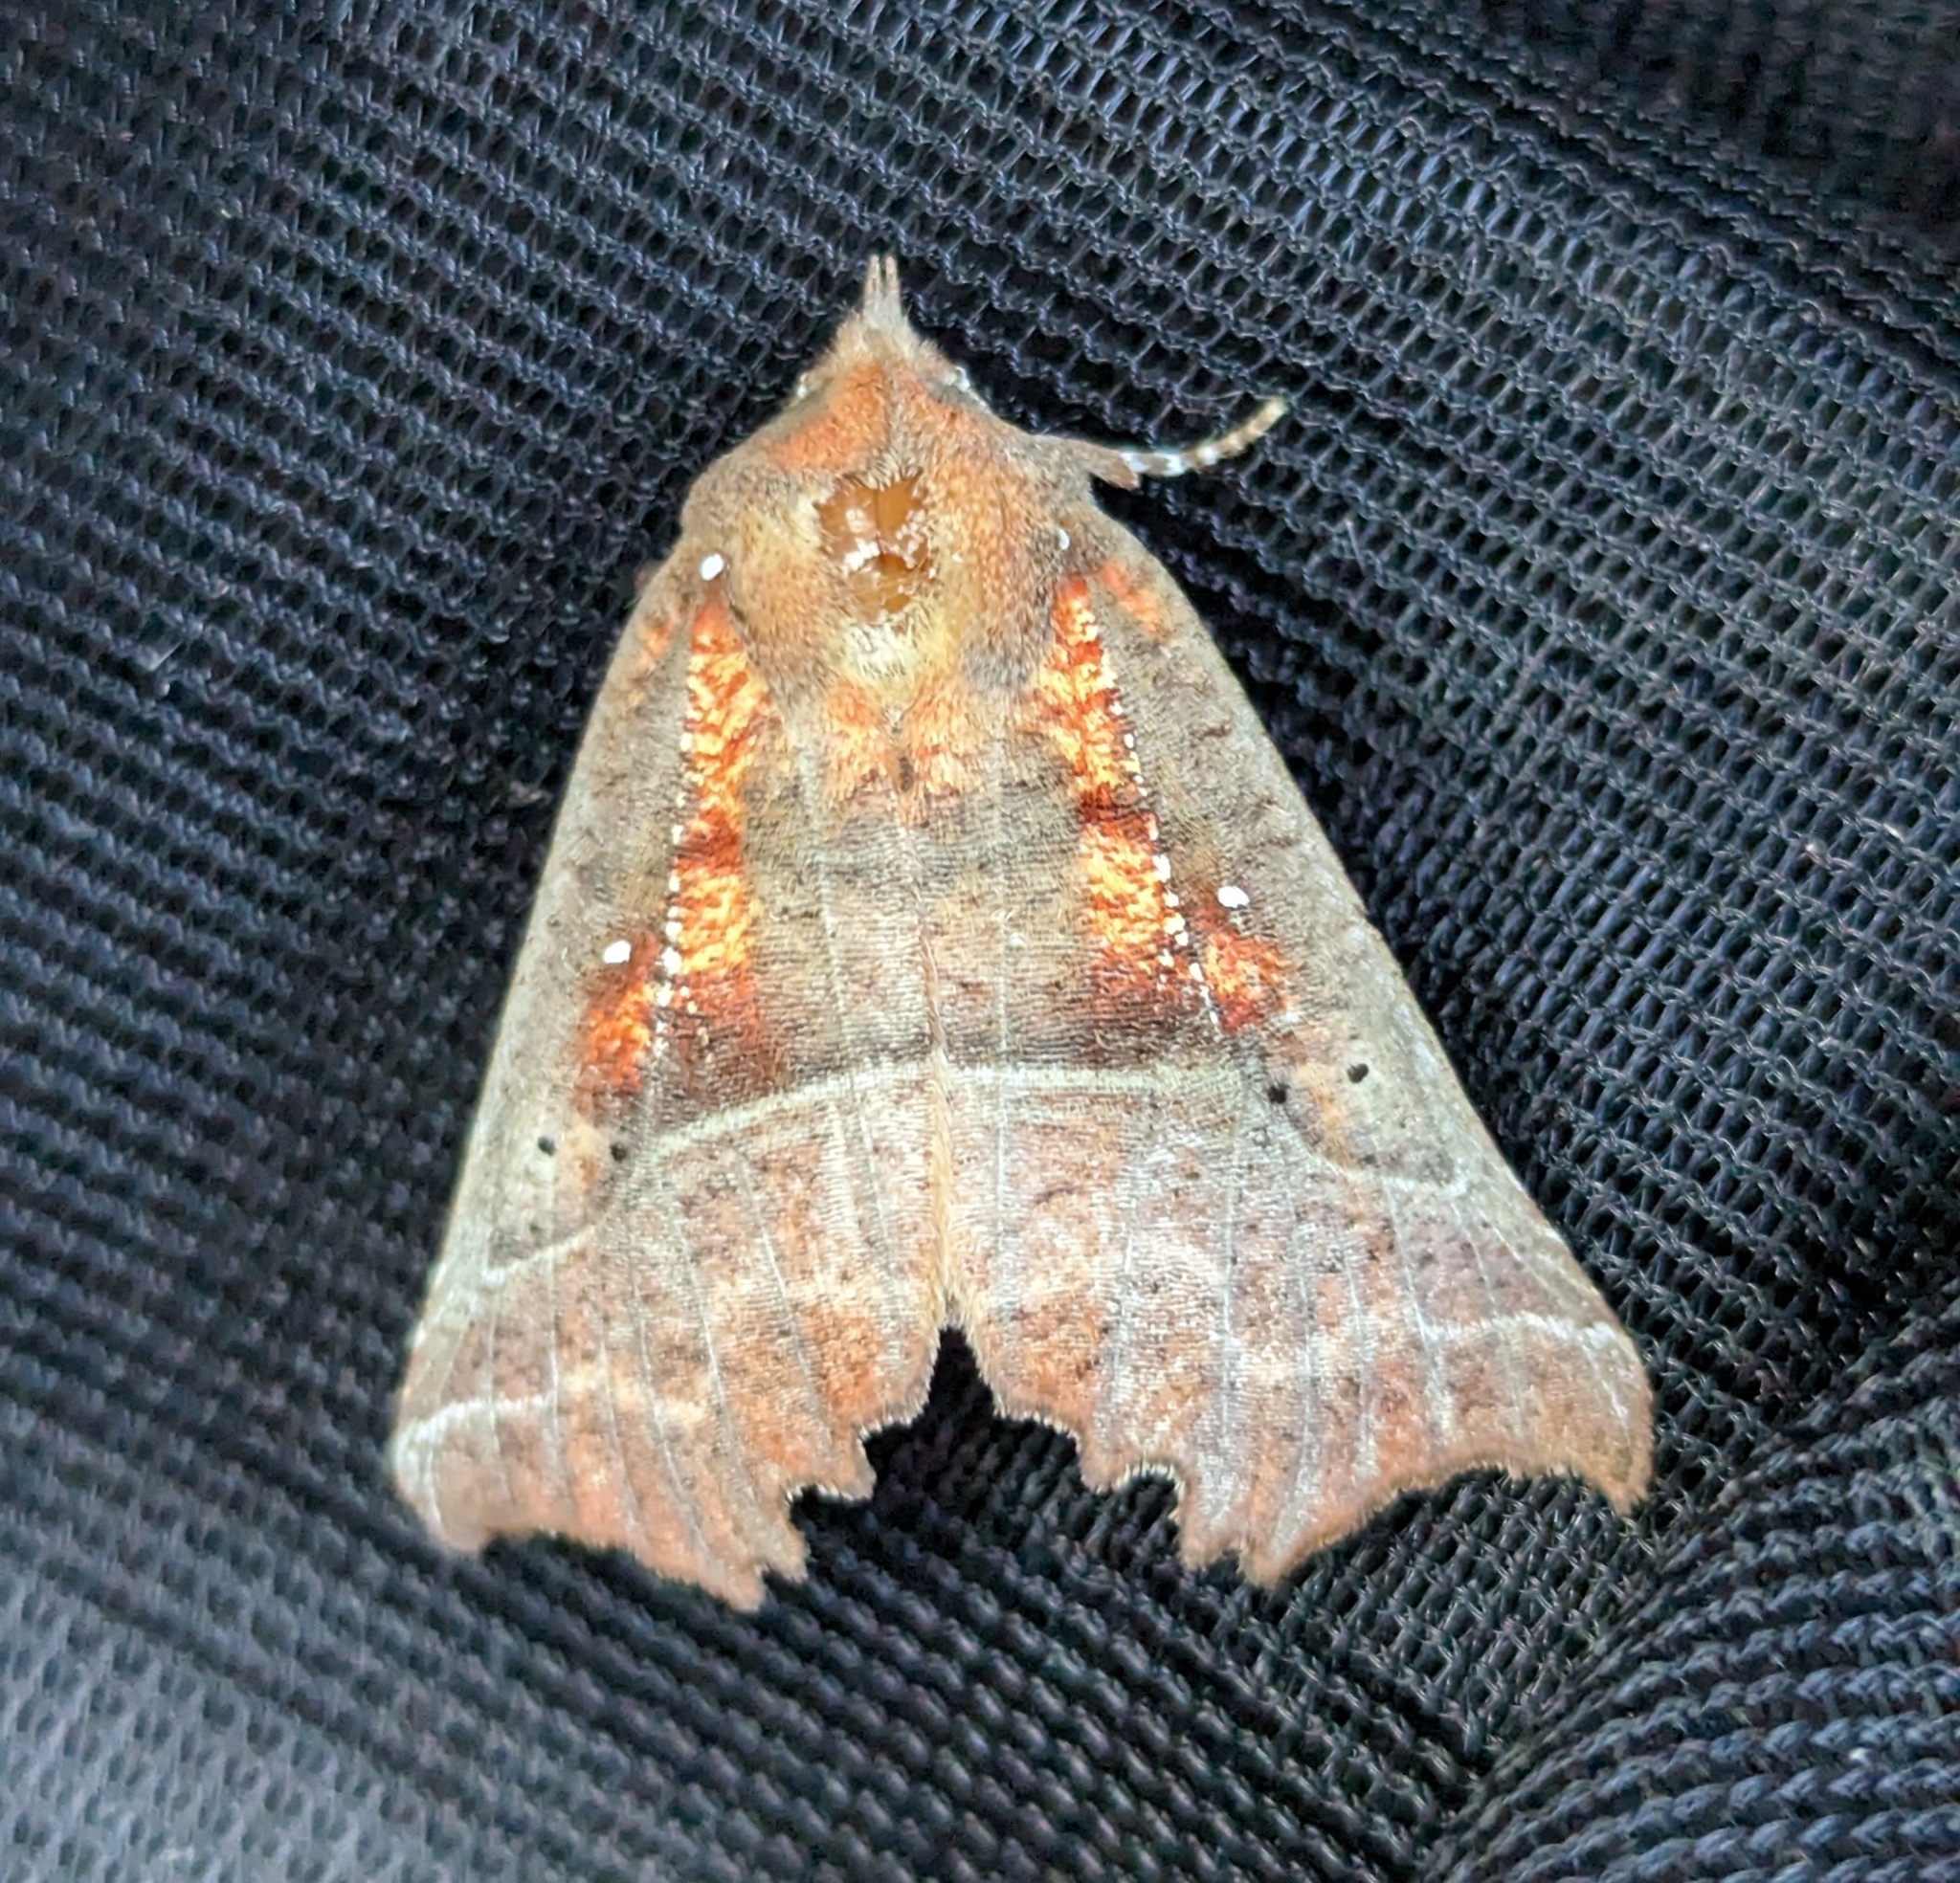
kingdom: Animalia
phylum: Arthropoda
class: Insecta
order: Lepidoptera
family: Erebidae
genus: Scoliopteryx
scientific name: Scoliopteryx libatrix
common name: Herald
